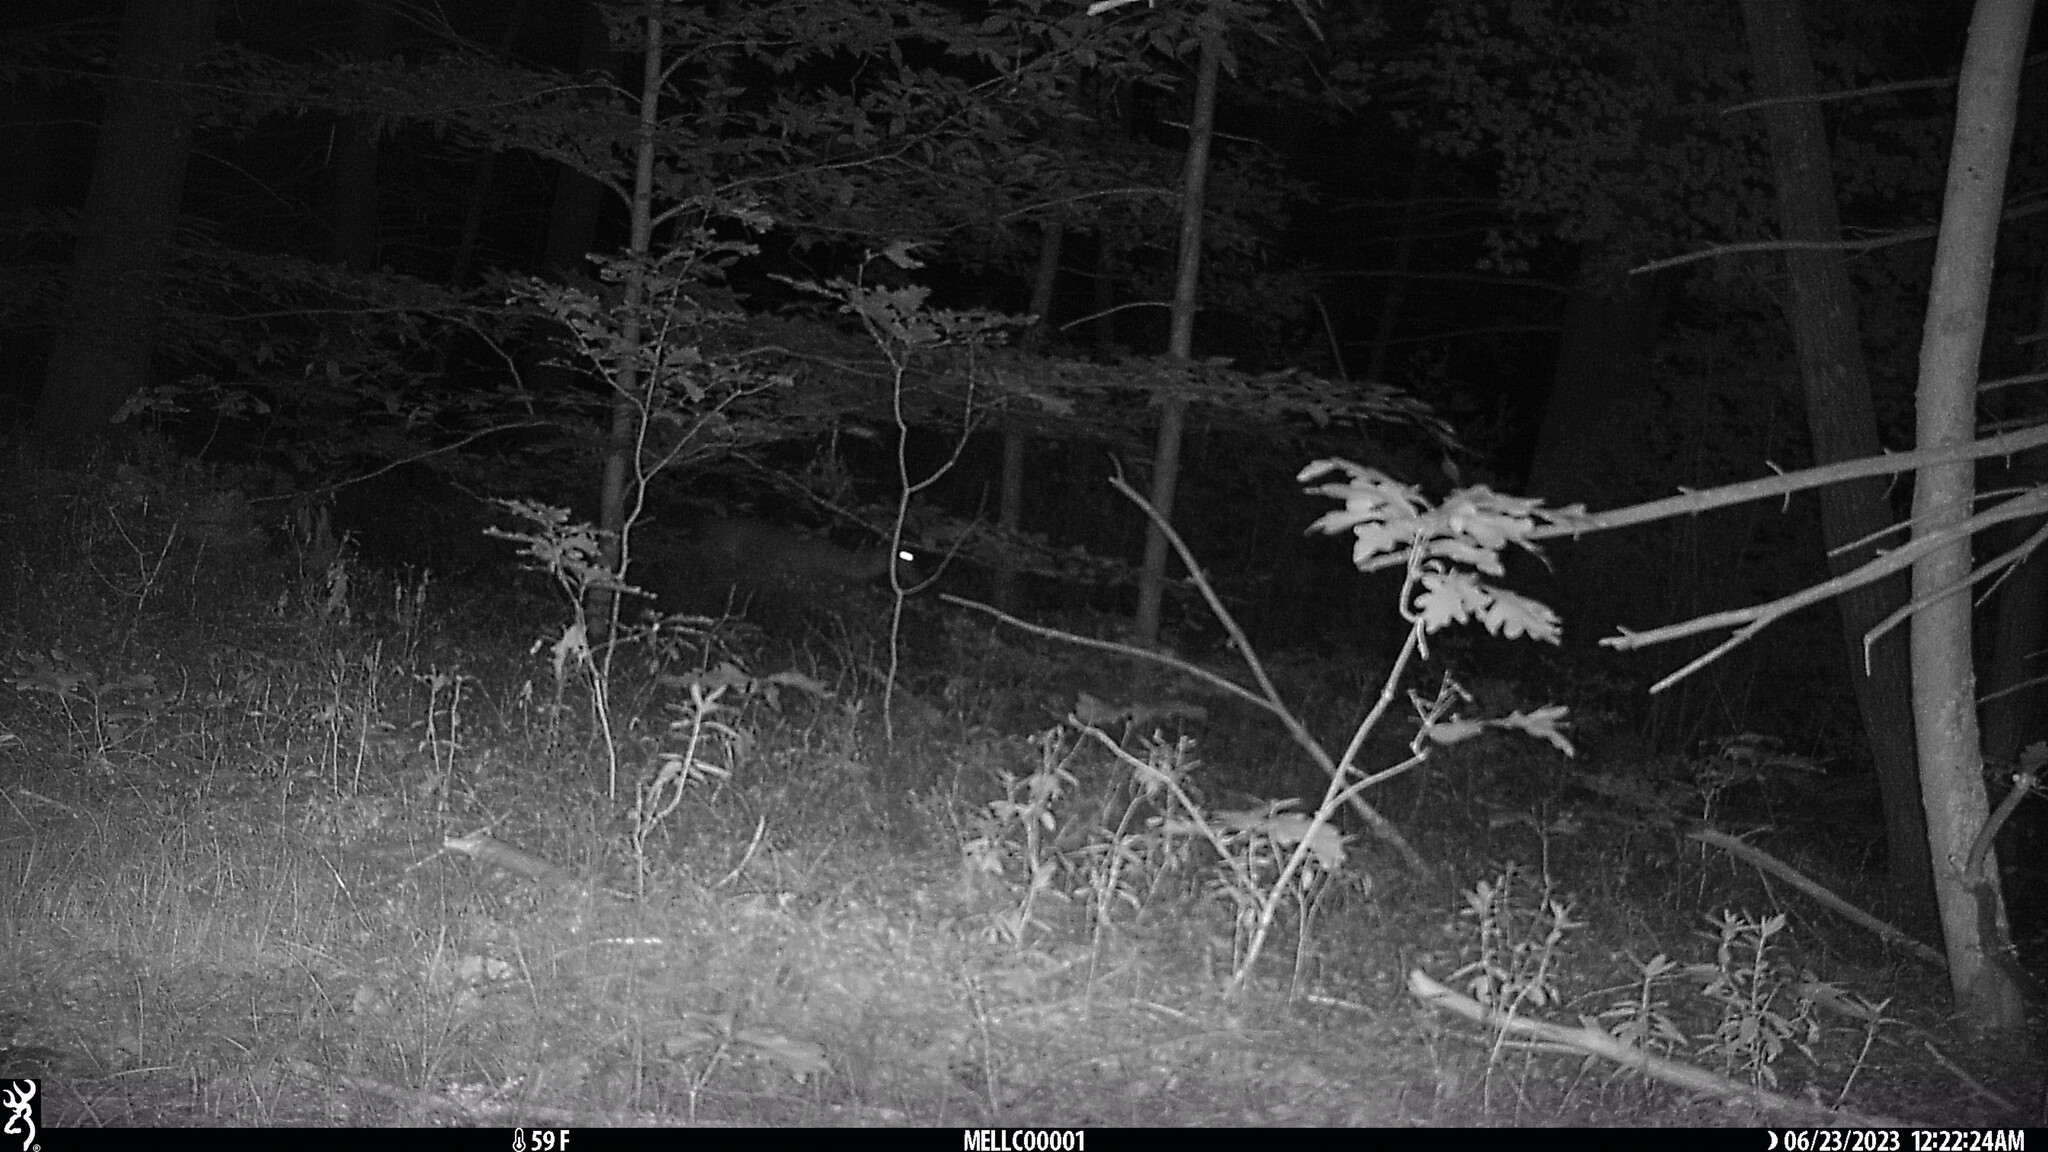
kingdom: Animalia
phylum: Chordata
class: Mammalia
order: Artiodactyla
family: Cervidae
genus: Odocoileus
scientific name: Odocoileus virginianus
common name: White-tailed deer
